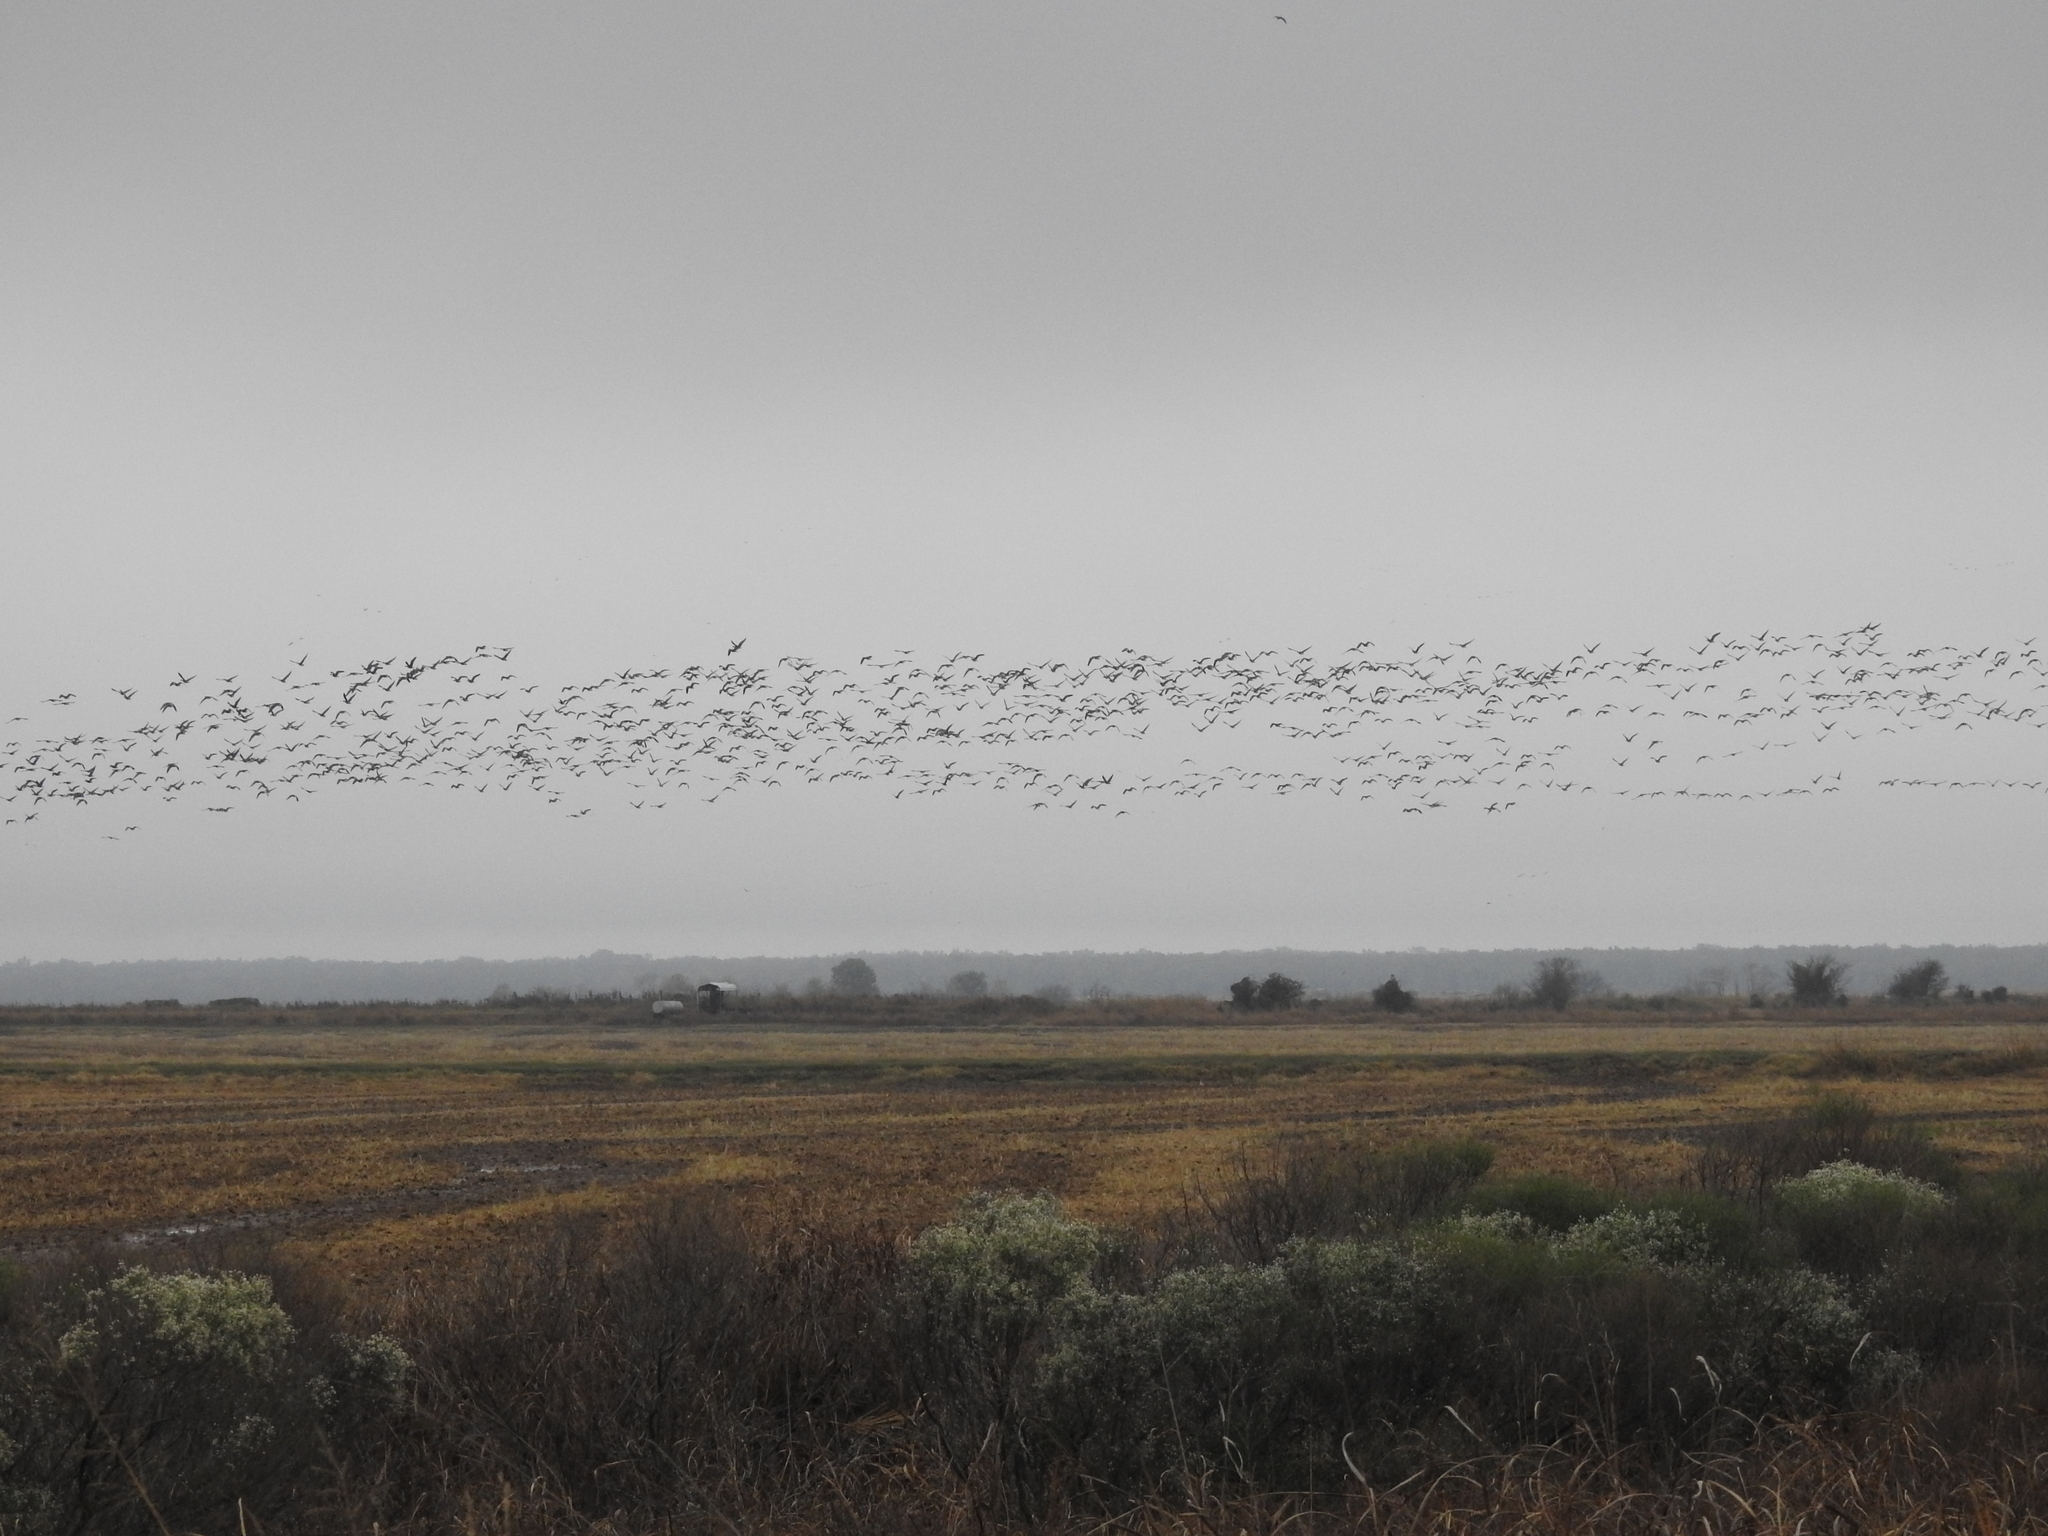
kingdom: Animalia
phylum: Chordata
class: Aves
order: Anseriformes
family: Anatidae
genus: Anser
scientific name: Anser albifrons
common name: Greater white-fronted goose
